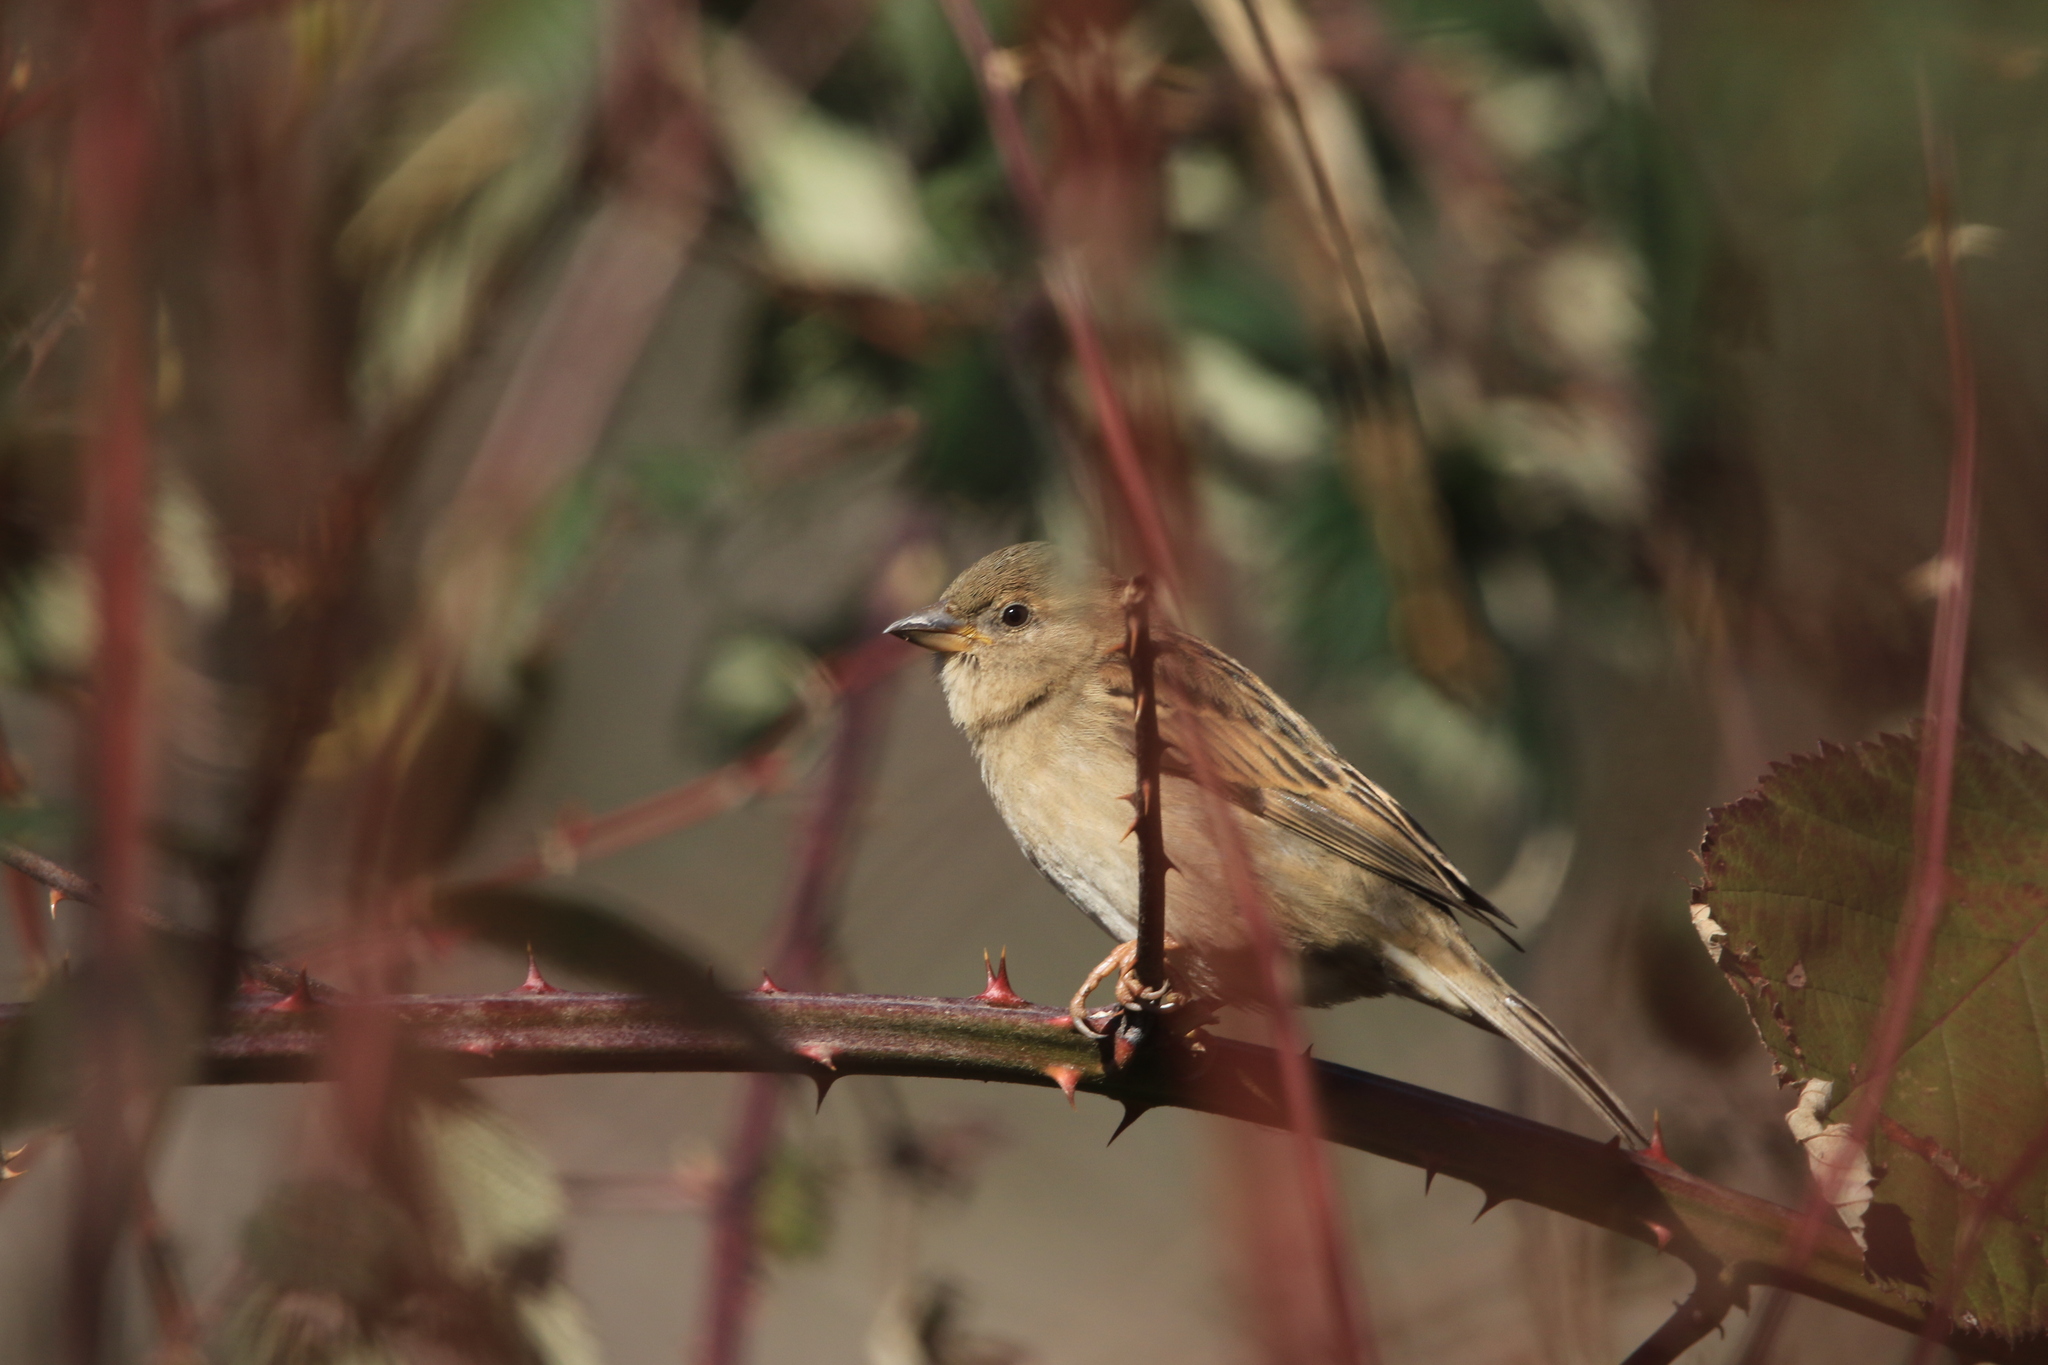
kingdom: Animalia
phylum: Chordata
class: Aves
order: Passeriformes
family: Passeridae
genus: Passer
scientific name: Passer domesticus
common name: House sparrow
